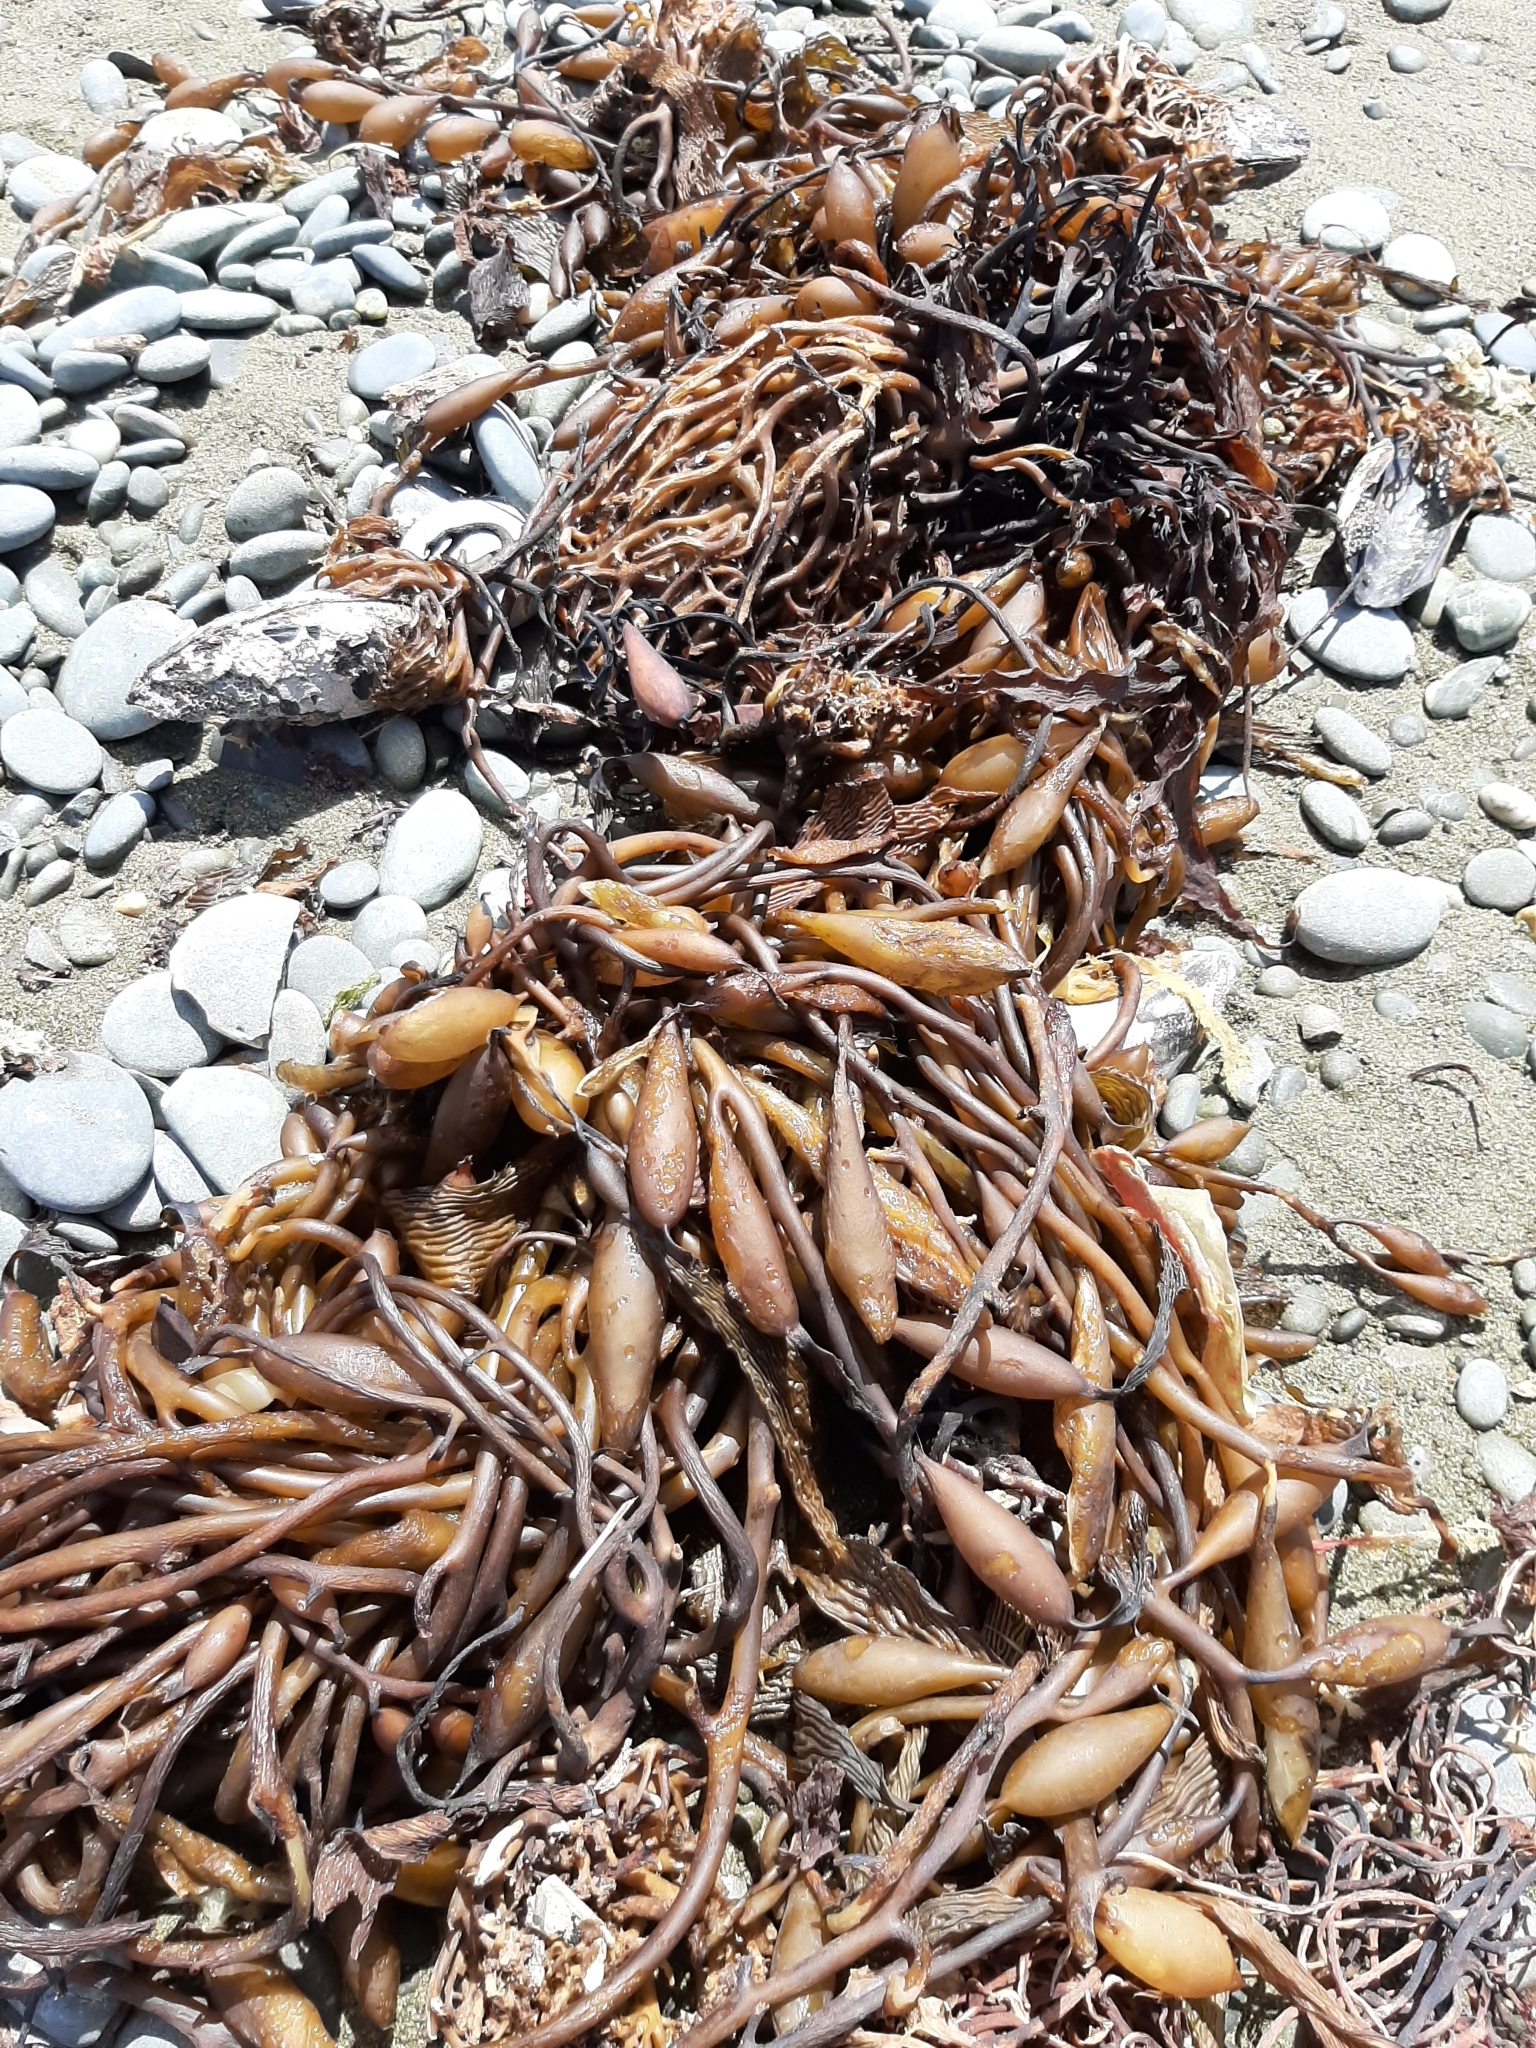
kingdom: Chromista
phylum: Ochrophyta
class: Phaeophyceae
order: Laminariales
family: Laminariaceae
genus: Macrocystis
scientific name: Macrocystis pyrifera
